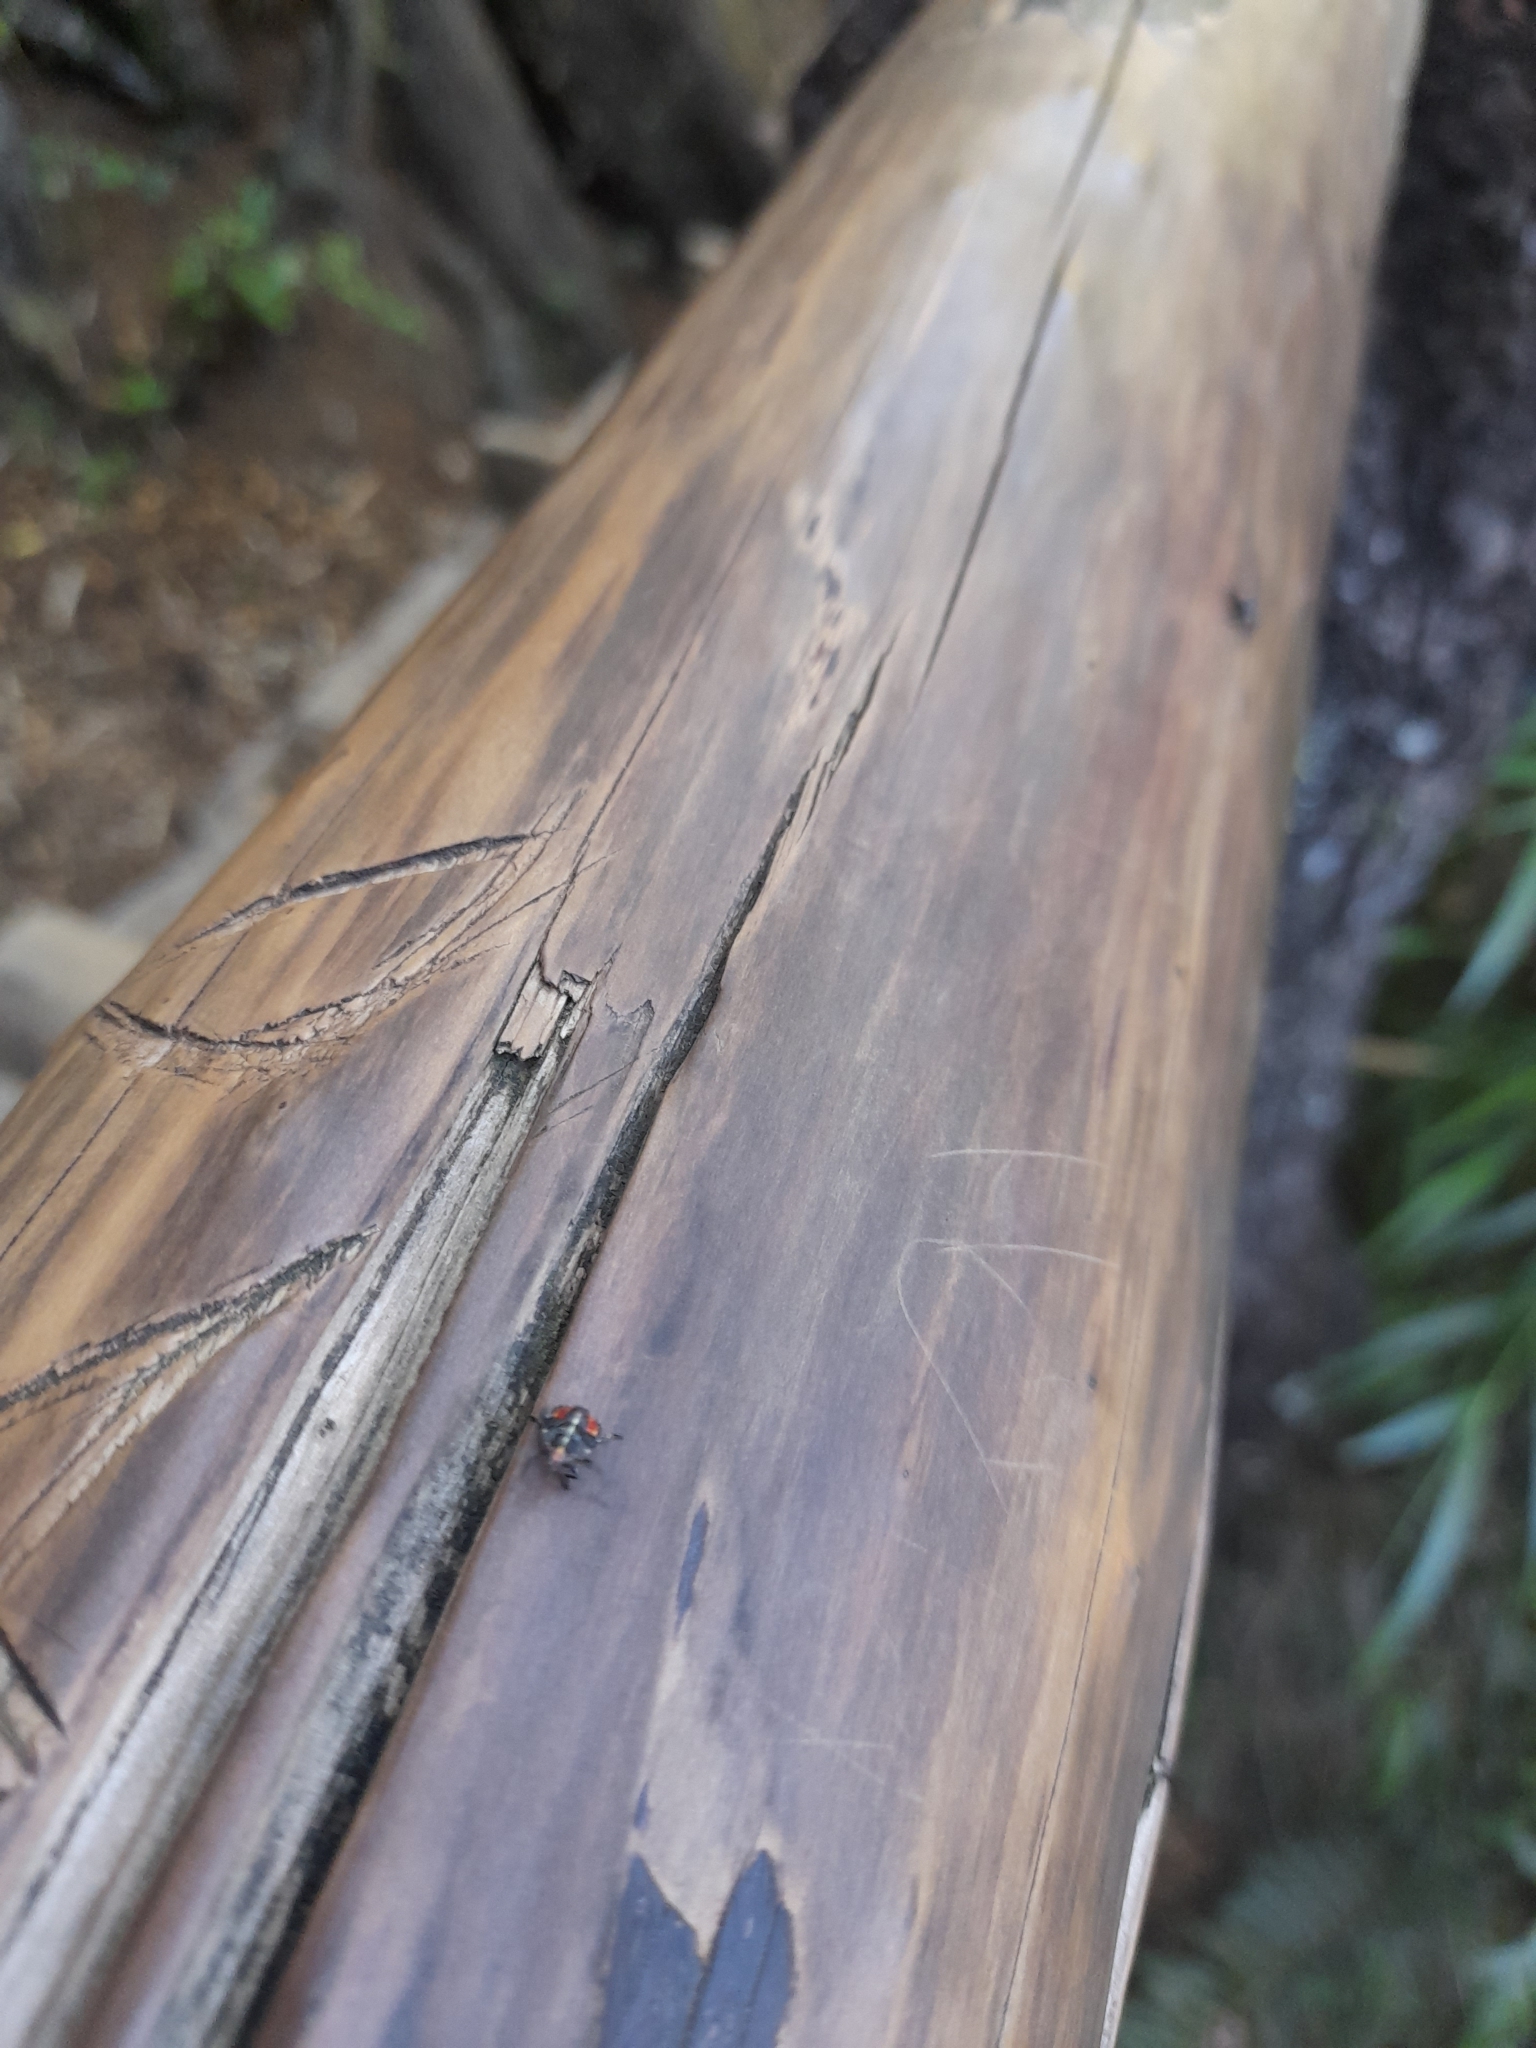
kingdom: Animalia
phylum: Arthropoda
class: Insecta
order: Hemiptera
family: Acanthosomatidae
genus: Sinopla
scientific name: Sinopla perpunctatus
